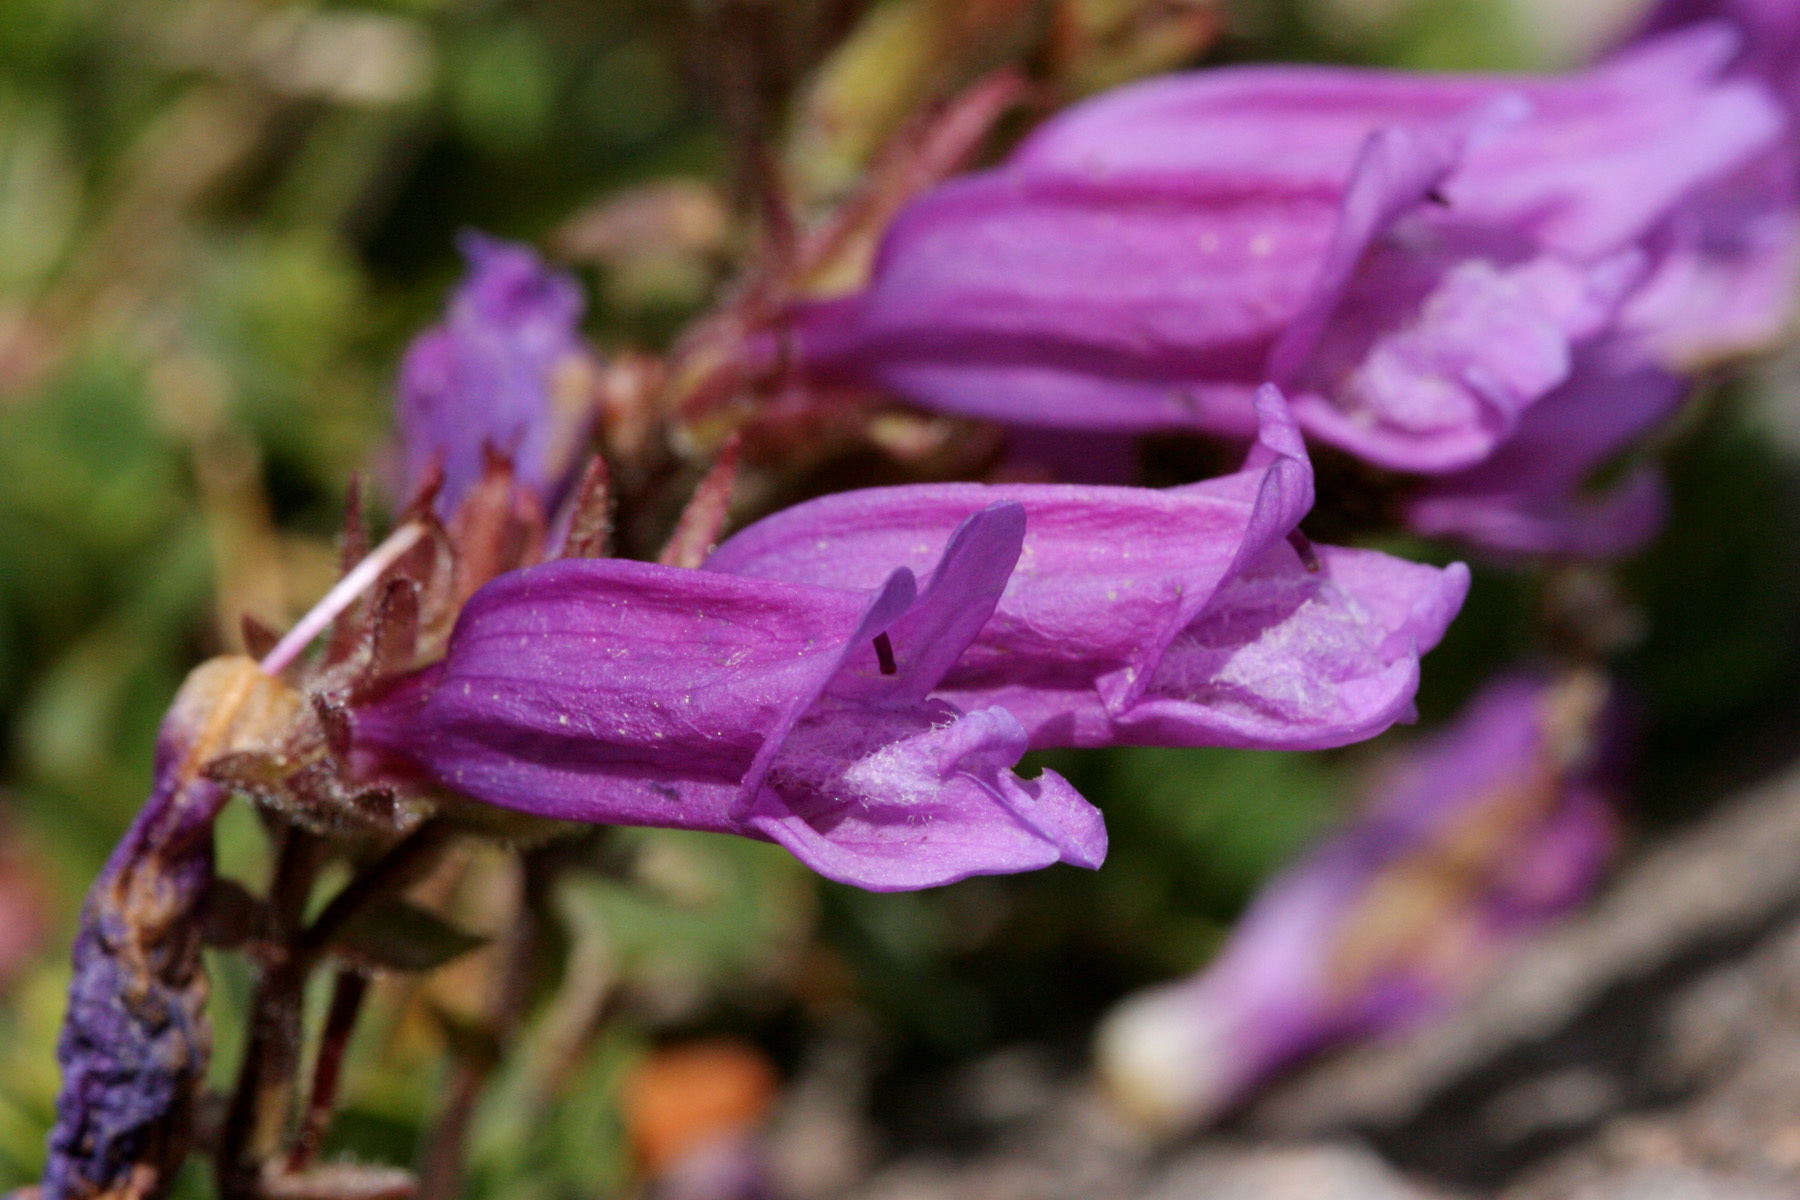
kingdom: Plantae
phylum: Tracheophyta
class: Magnoliopsida
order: Lamiales
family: Plantaginaceae
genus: Penstemon
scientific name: Penstemon davidsonii
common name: Davidson's penstemon
